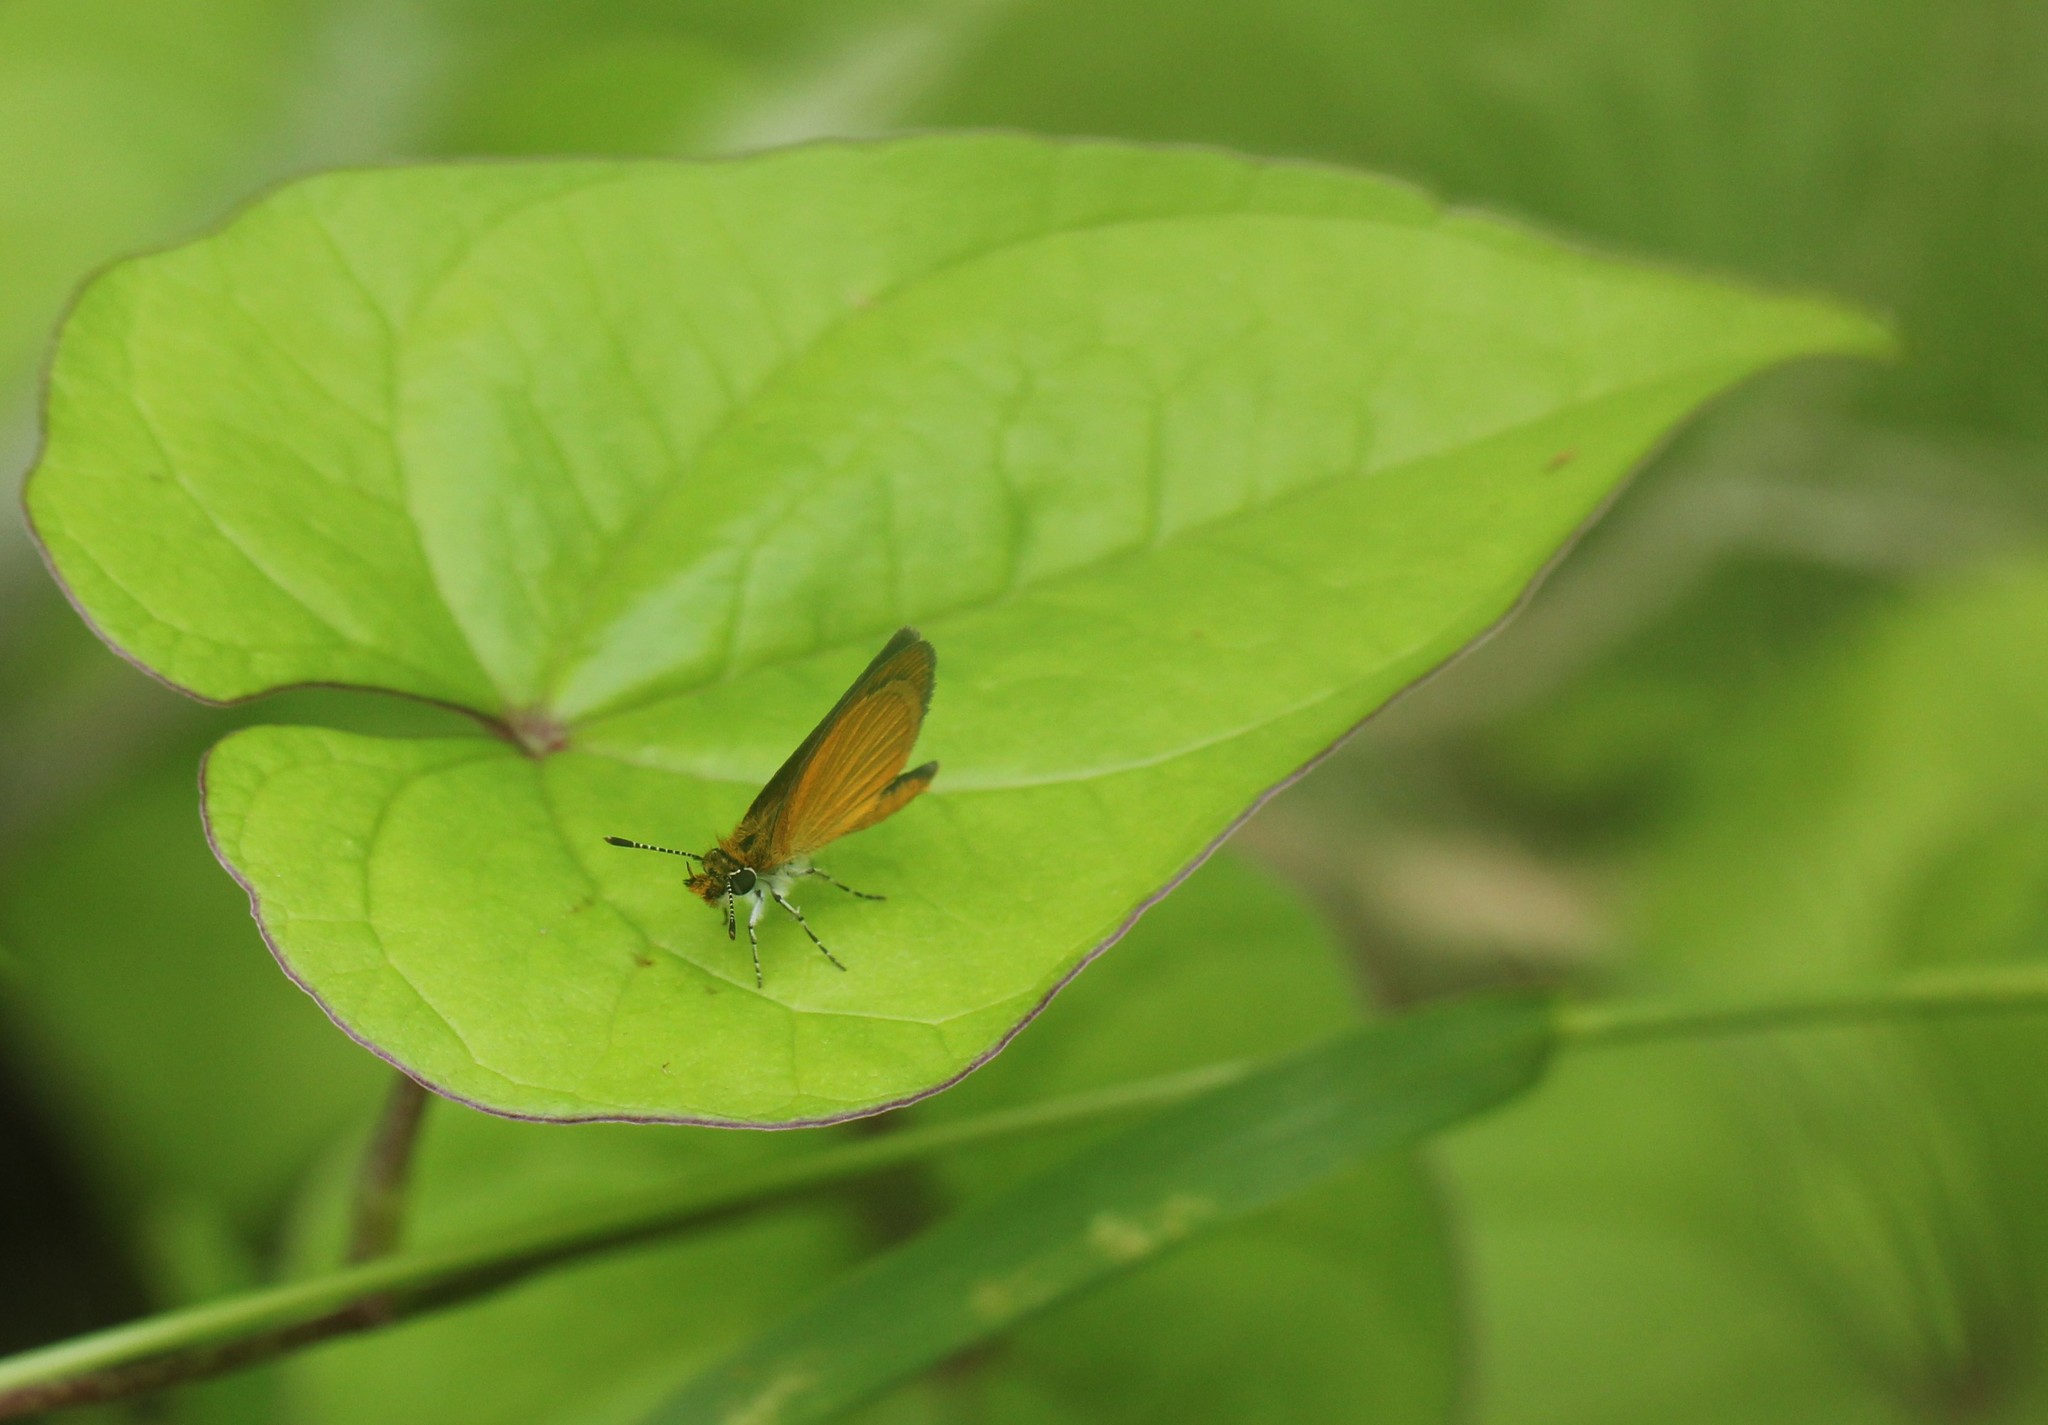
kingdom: Animalia
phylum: Arthropoda
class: Insecta
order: Lepidoptera
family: Hesperiidae
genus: Ancyloxypha
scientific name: Ancyloxypha numitor
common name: Least skipper
